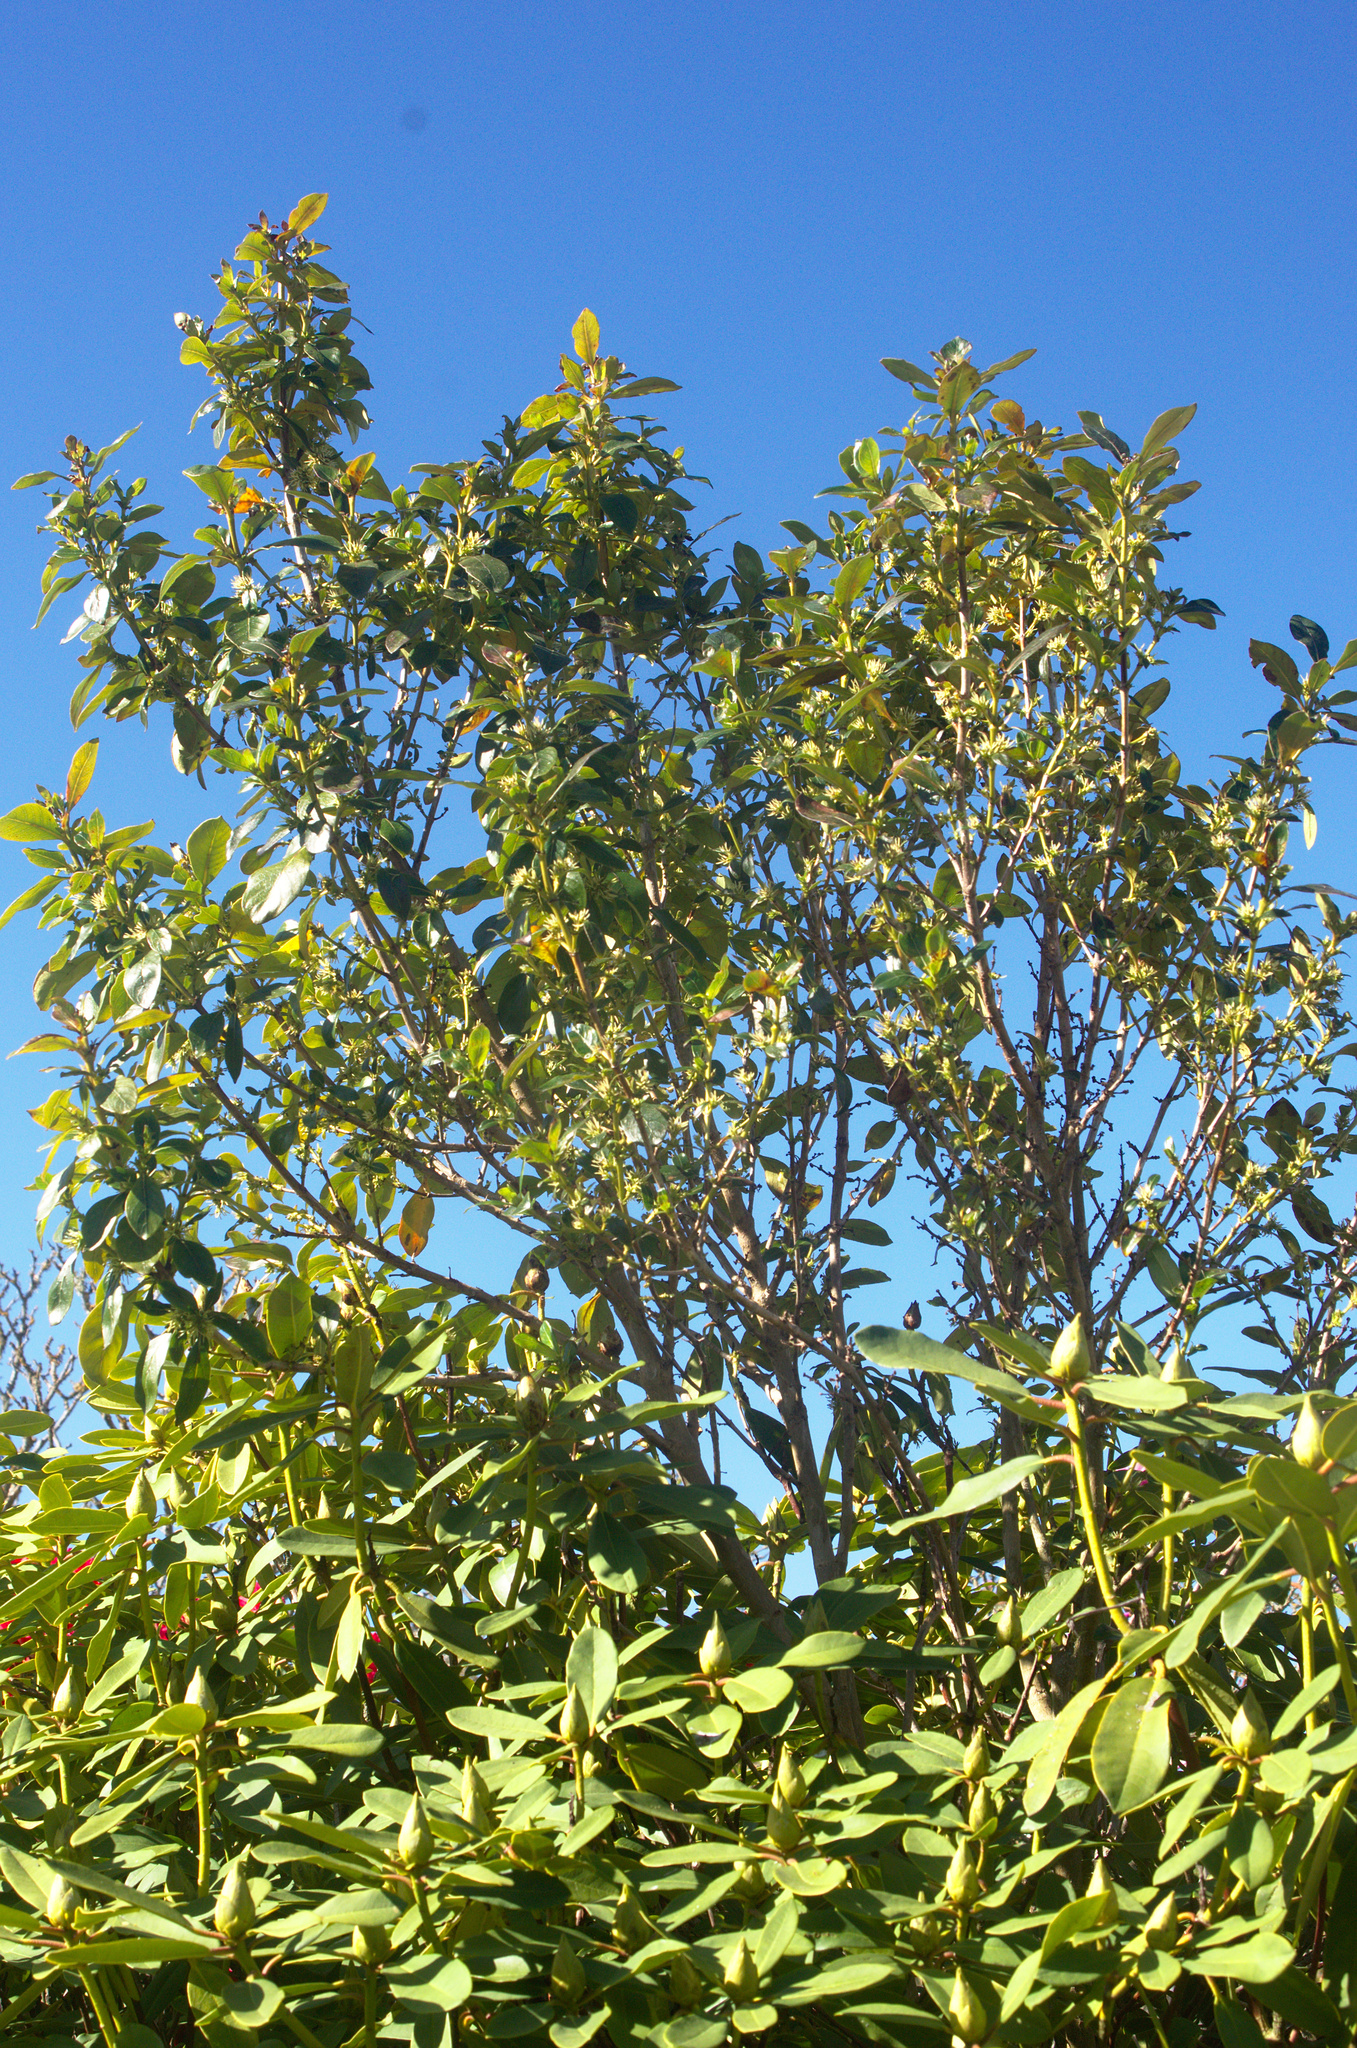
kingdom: Plantae
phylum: Tracheophyta
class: Magnoliopsida
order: Gentianales
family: Rubiaceae
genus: Coprosma
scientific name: Coprosma robusta
